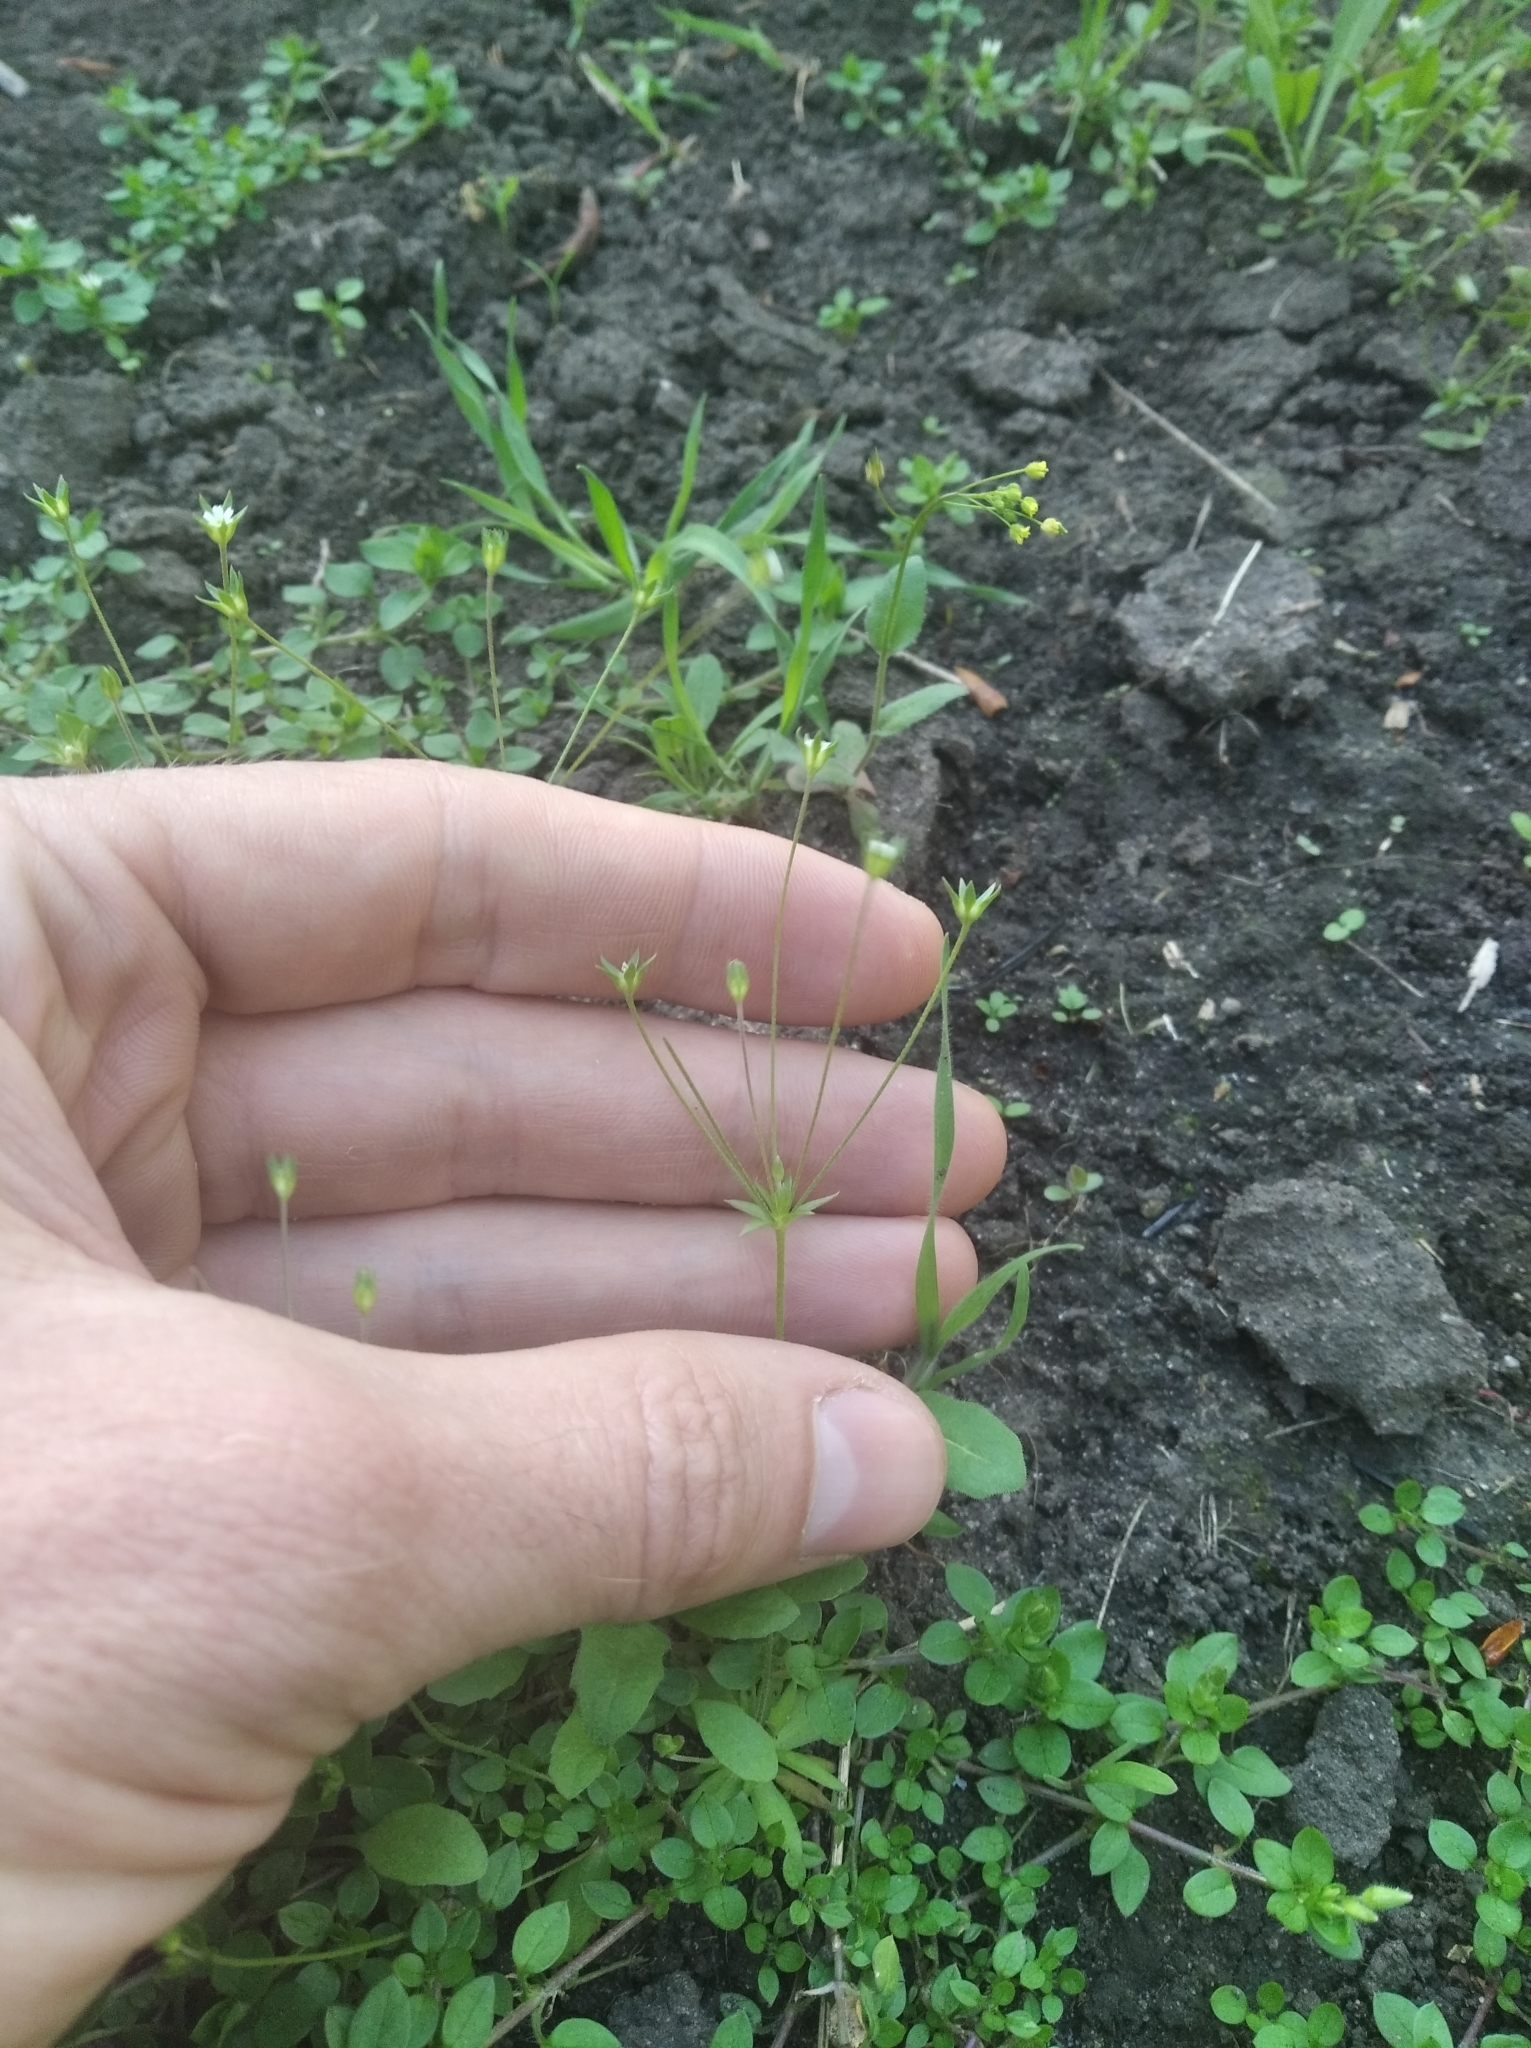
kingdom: Plantae
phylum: Tracheophyta
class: Magnoliopsida
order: Ericales
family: Primulaceae
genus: Androsace
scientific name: Androsace elongata
